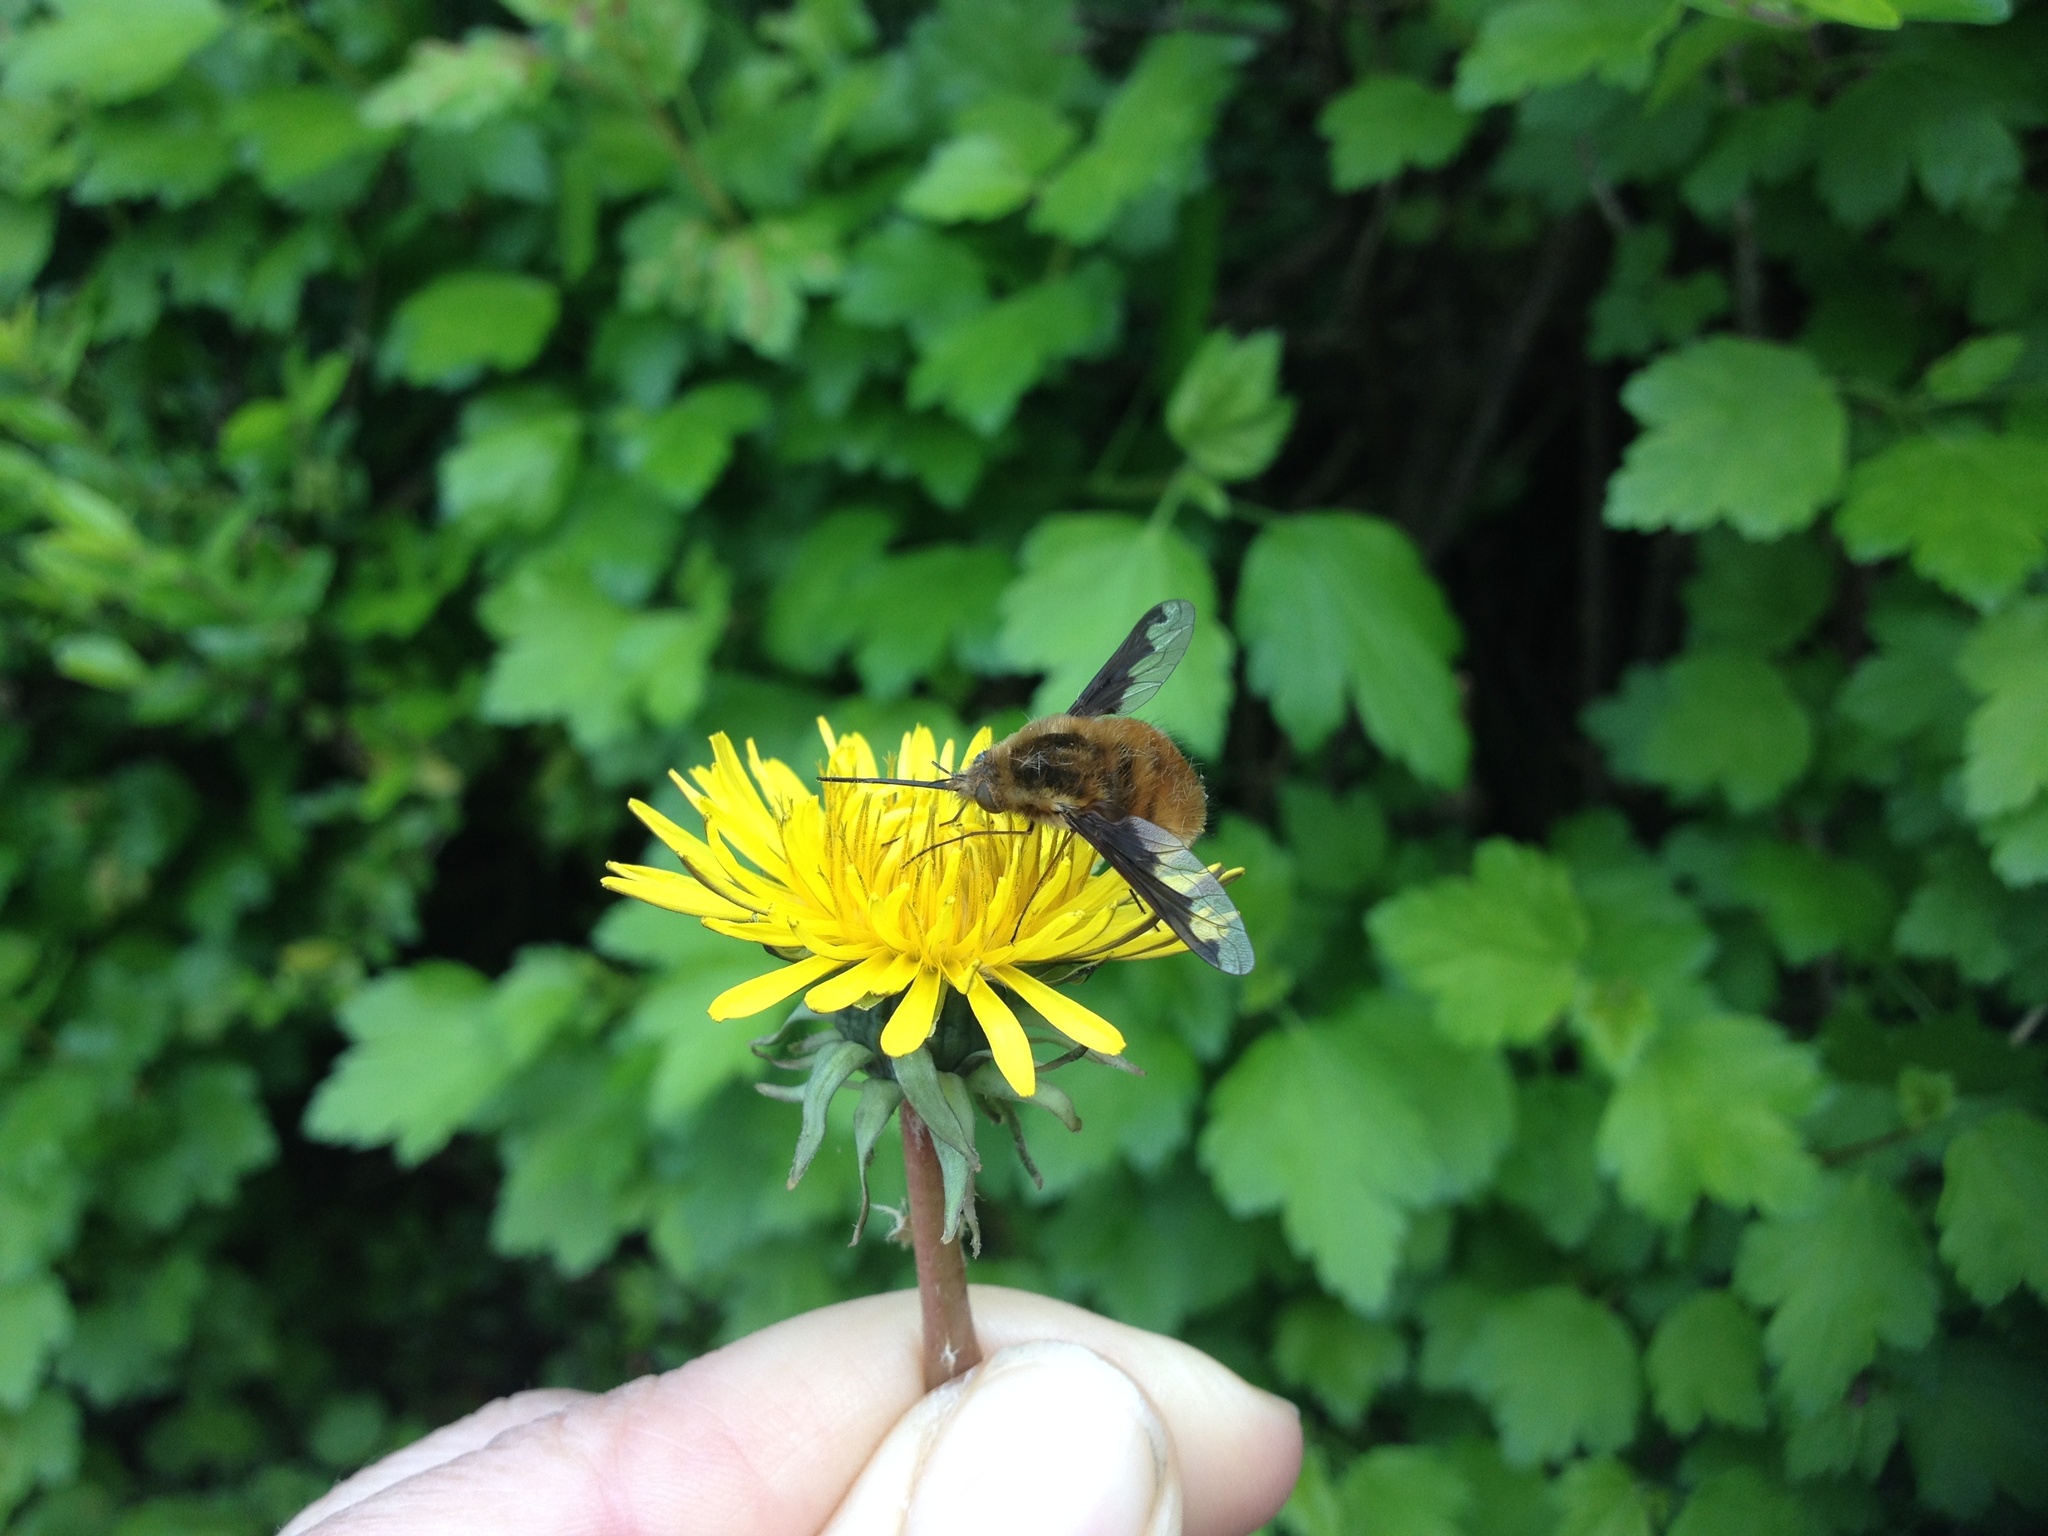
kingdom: Animalia
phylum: Arthropoda
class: Insecta
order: Diptera
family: Bombyliidae
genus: Bombylius
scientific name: Bombylius major
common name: Bee fly
